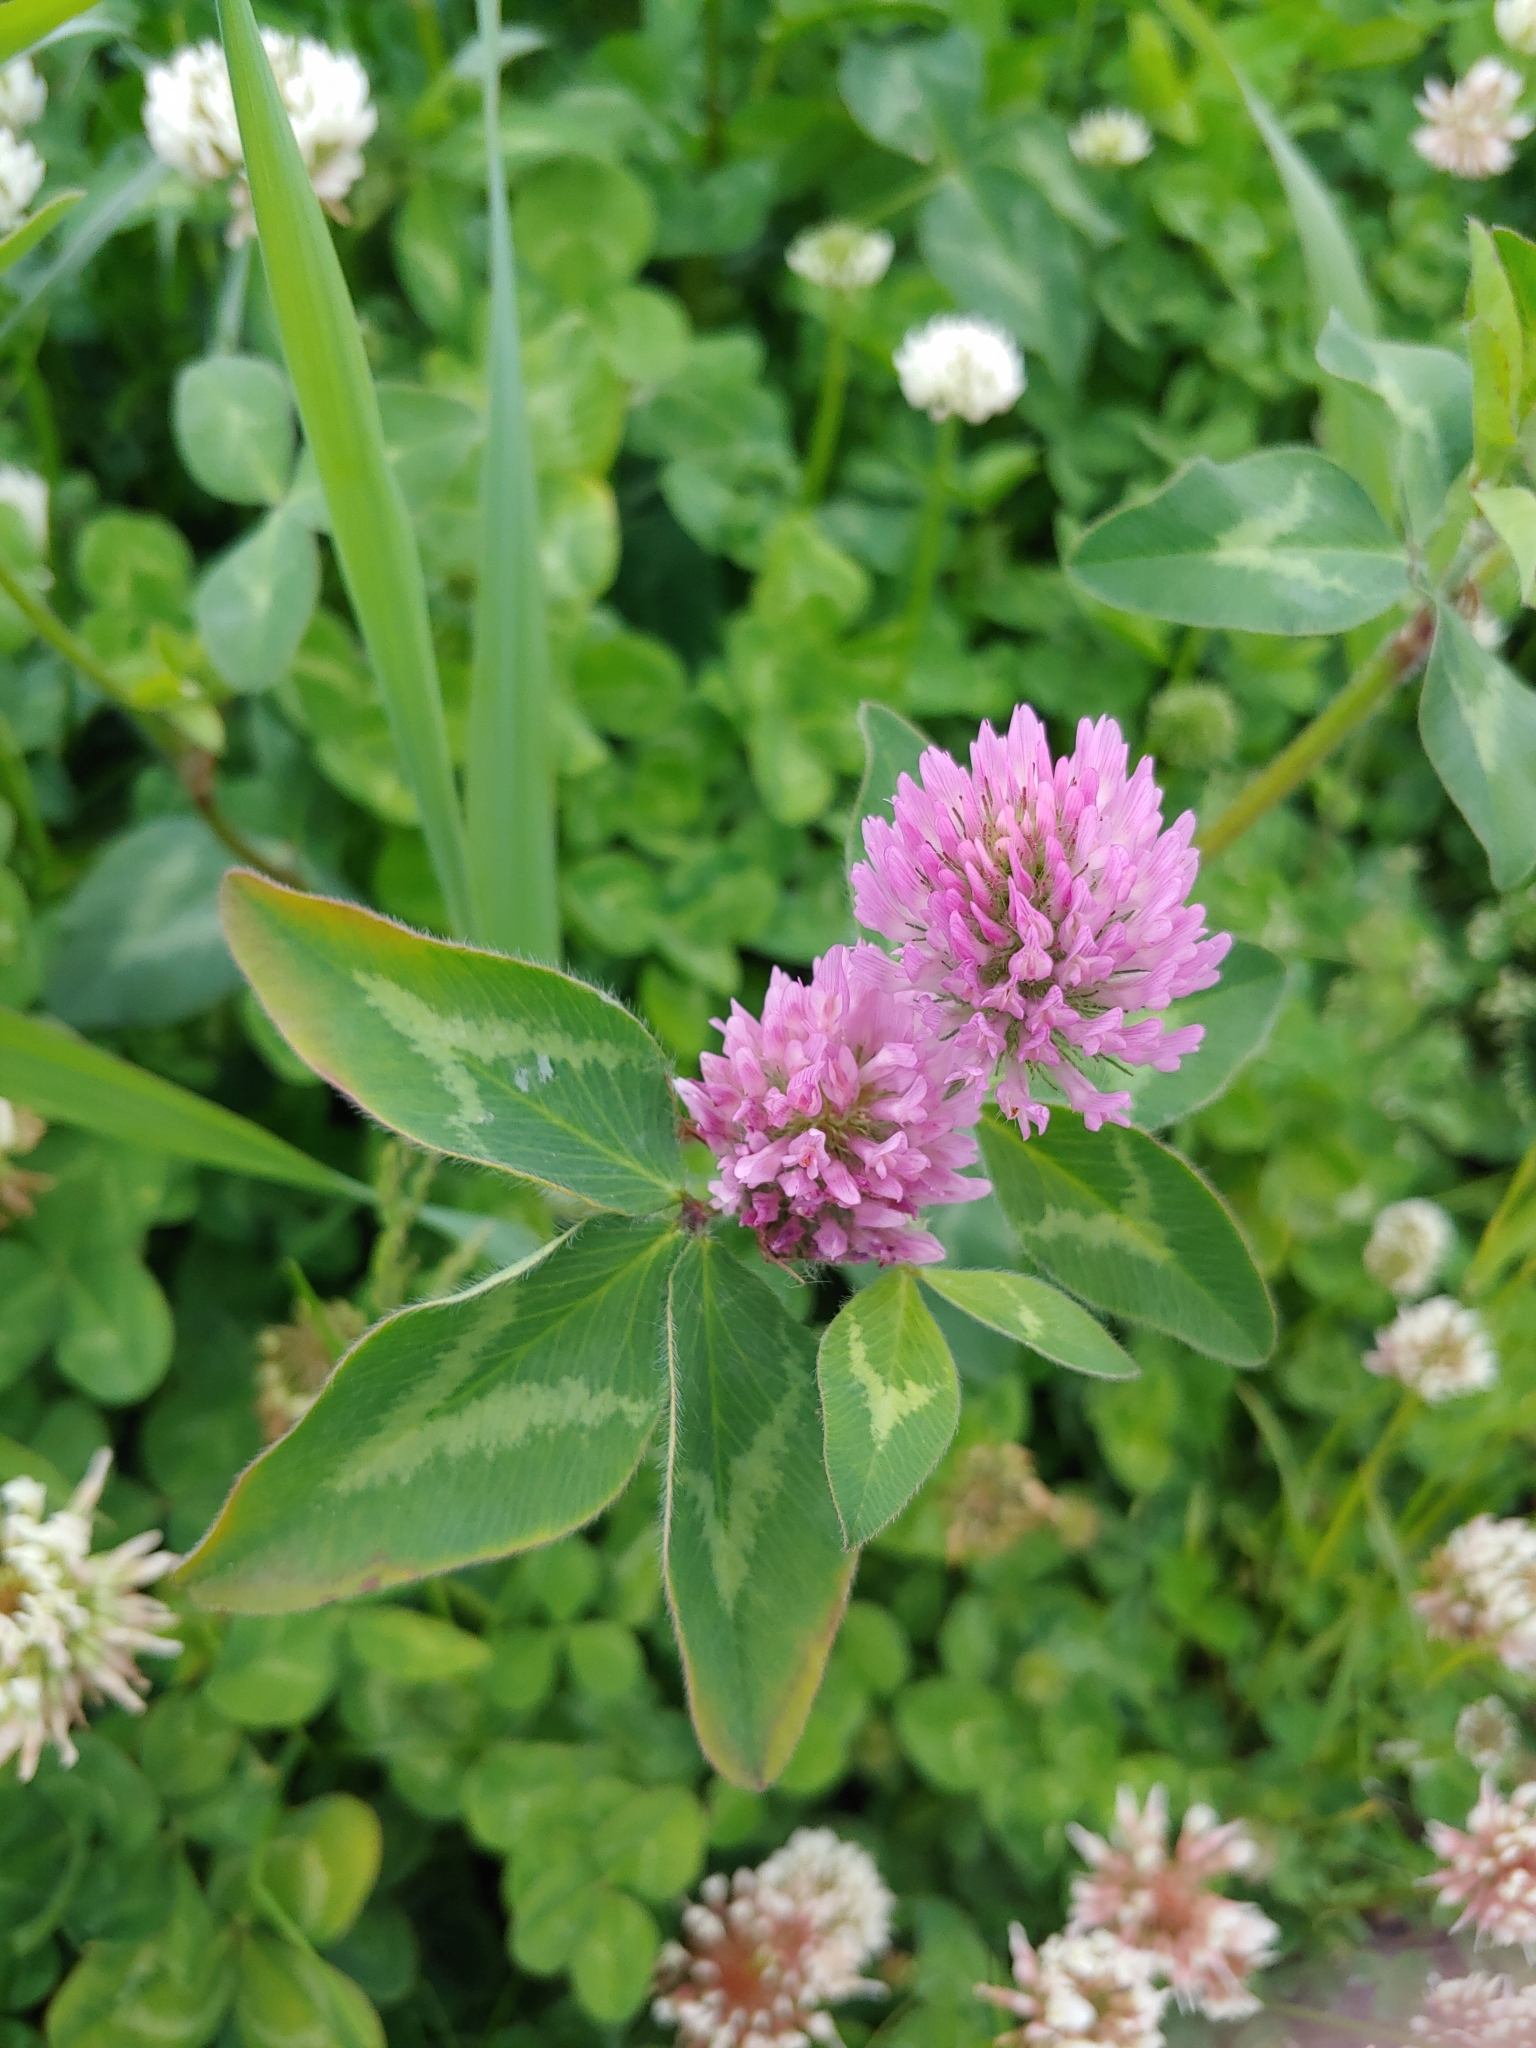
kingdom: Plantae
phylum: Tracheophyta
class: Magnoliopsida
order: Fabales
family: Fabaceae
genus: Trifolium
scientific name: Trifolium pratense
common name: Red clover
